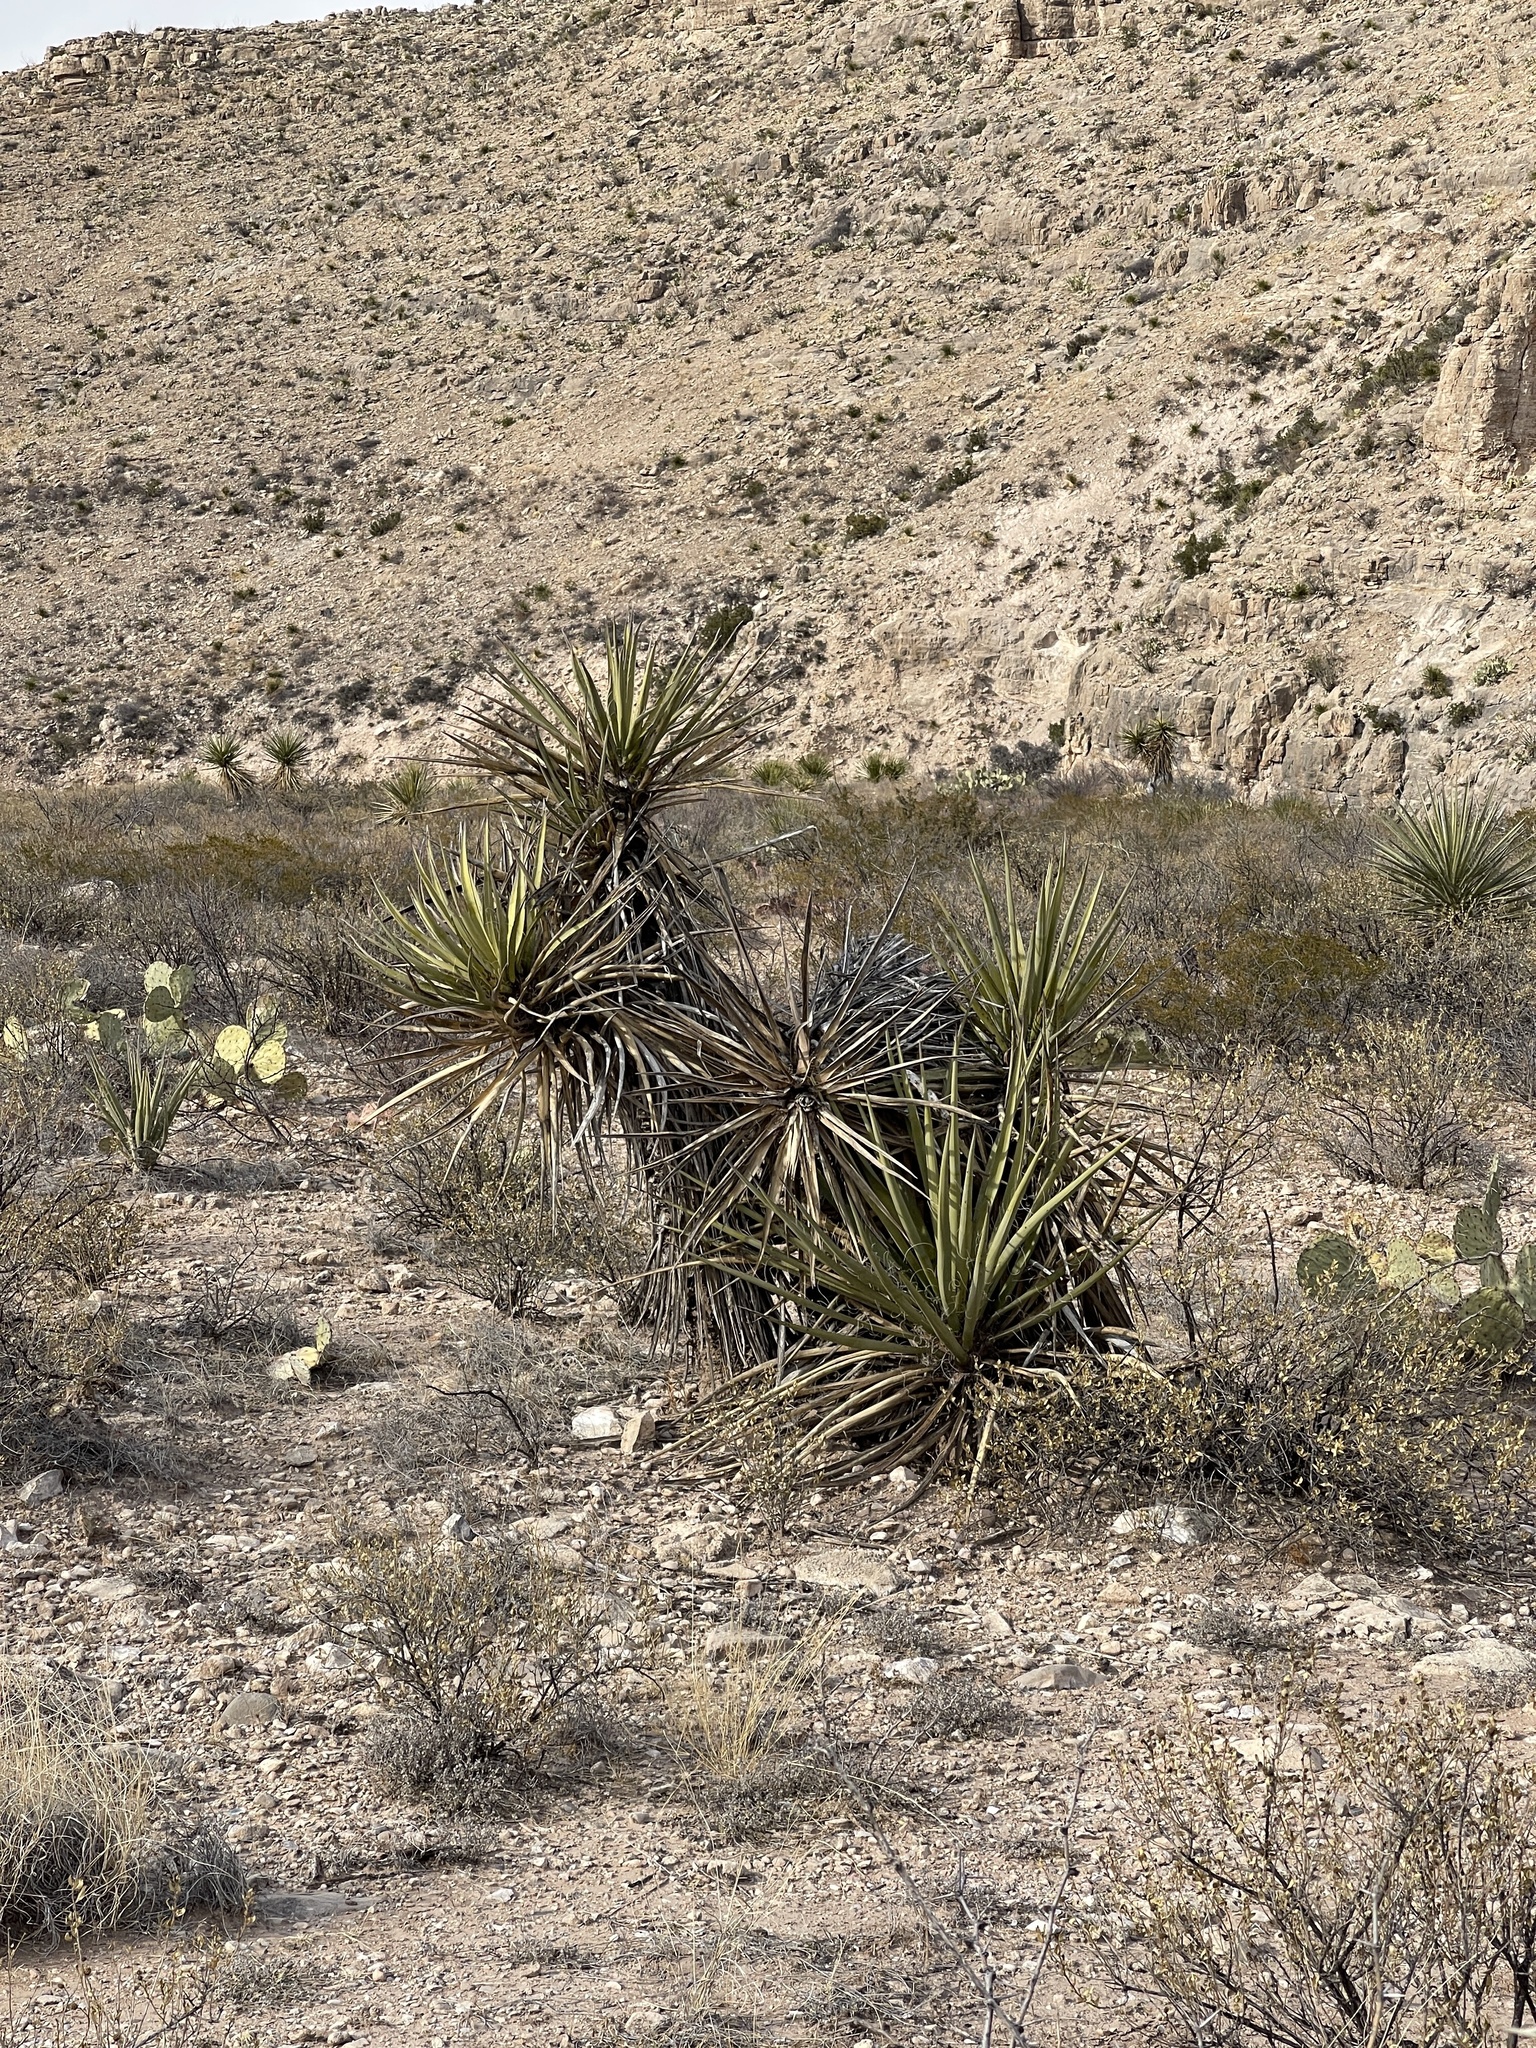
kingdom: Plantae
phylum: Tracheophyta
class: Liliopsida
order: Asparagales
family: Asparagaceae
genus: Yucca
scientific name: Yucca treculiana
